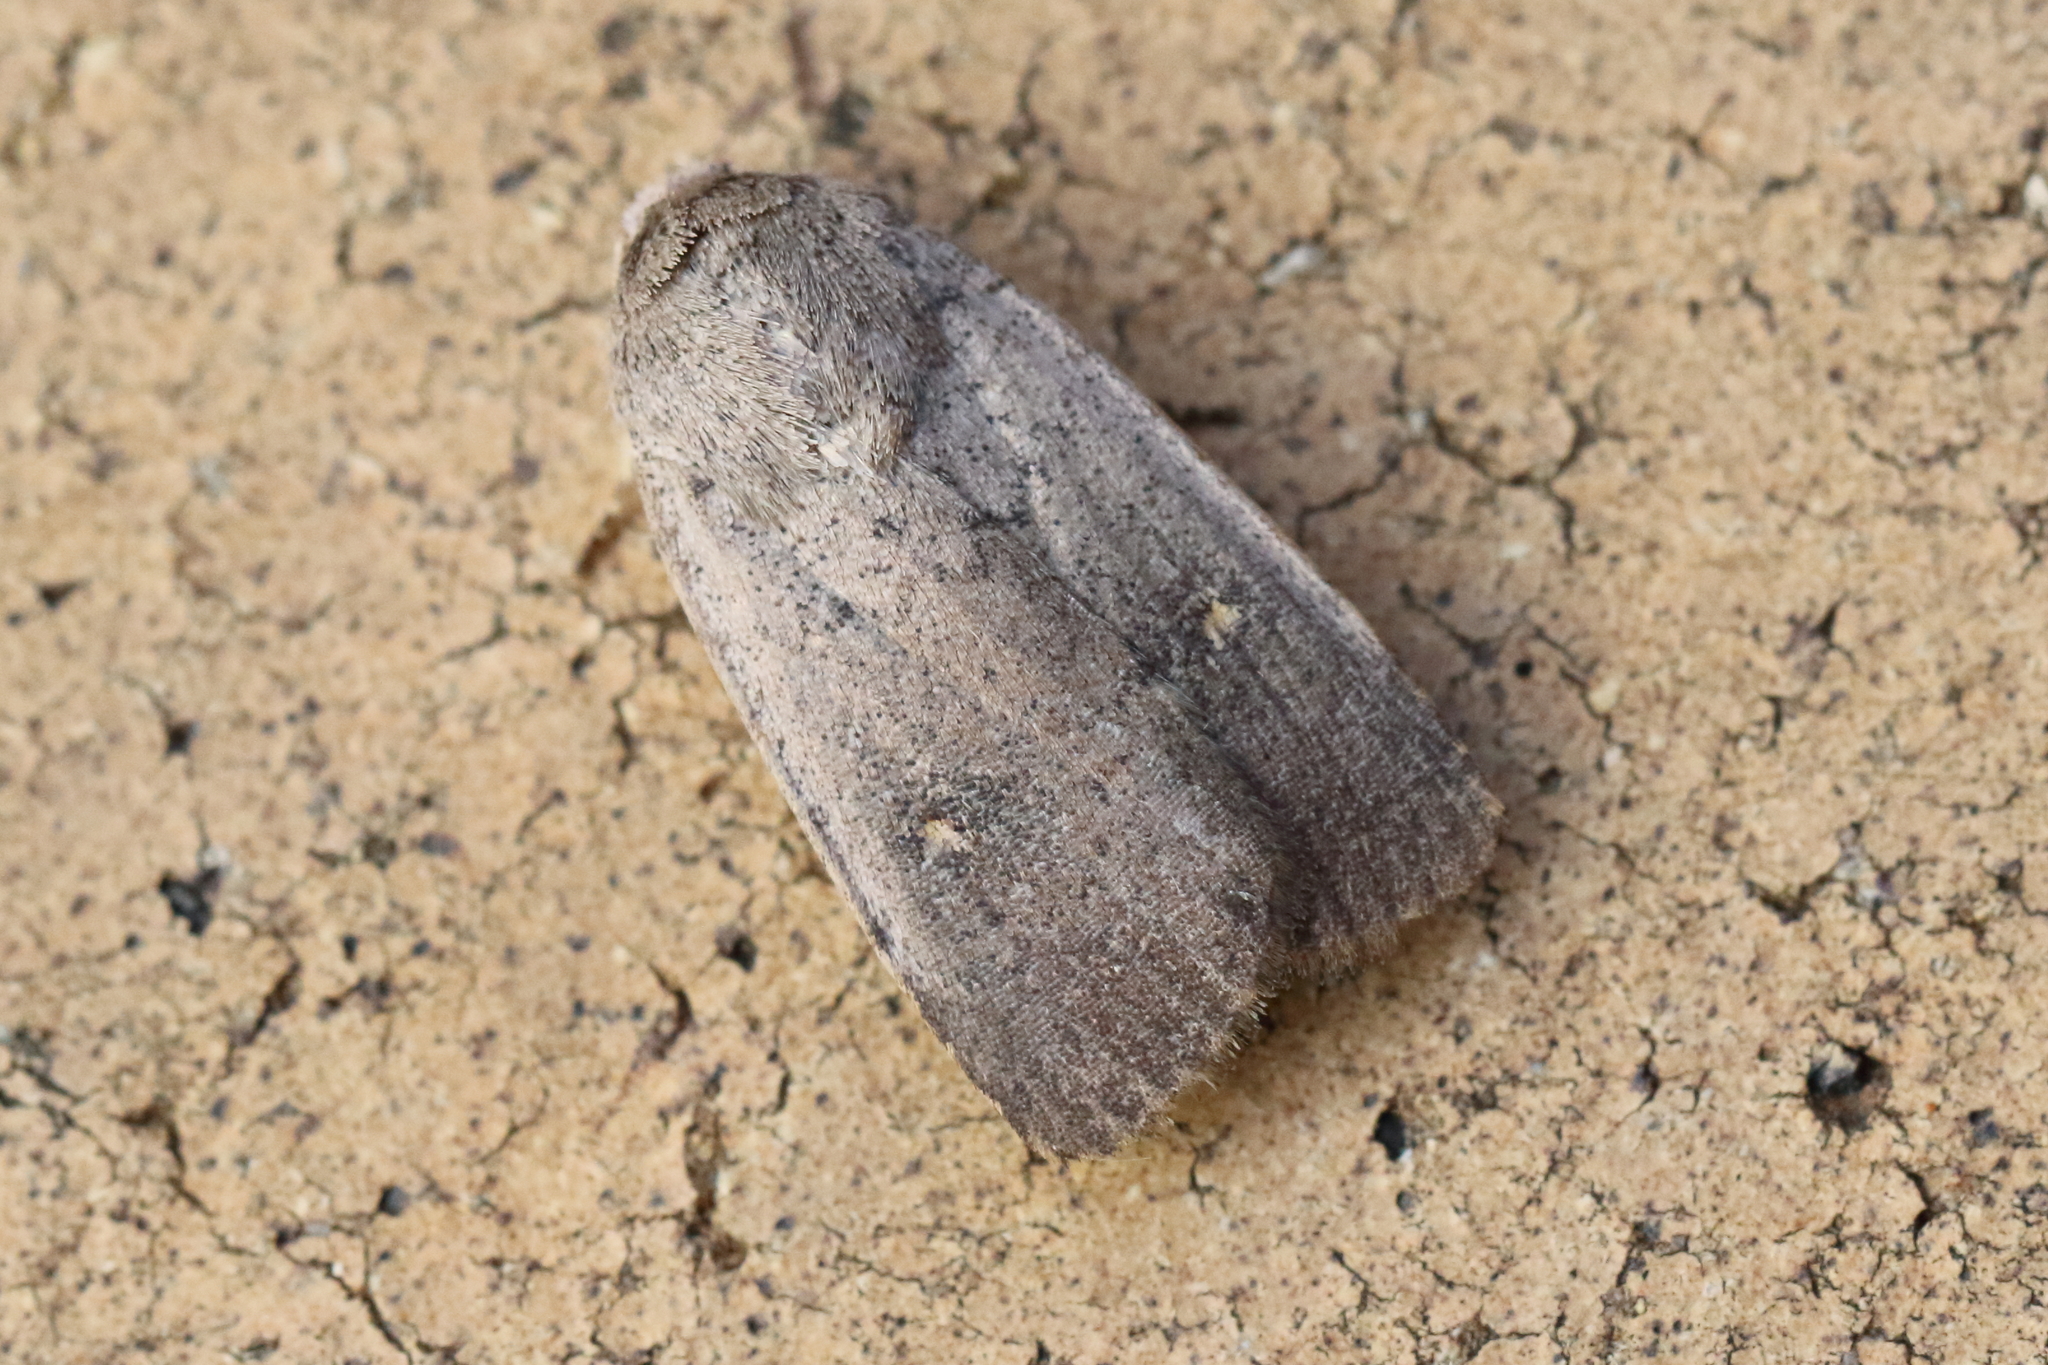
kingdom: Animalia
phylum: Arthropoda
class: Insecta
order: Lepidoptera
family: Noctuidae
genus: Proteuxoa
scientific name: Proteuxoa tibiata
